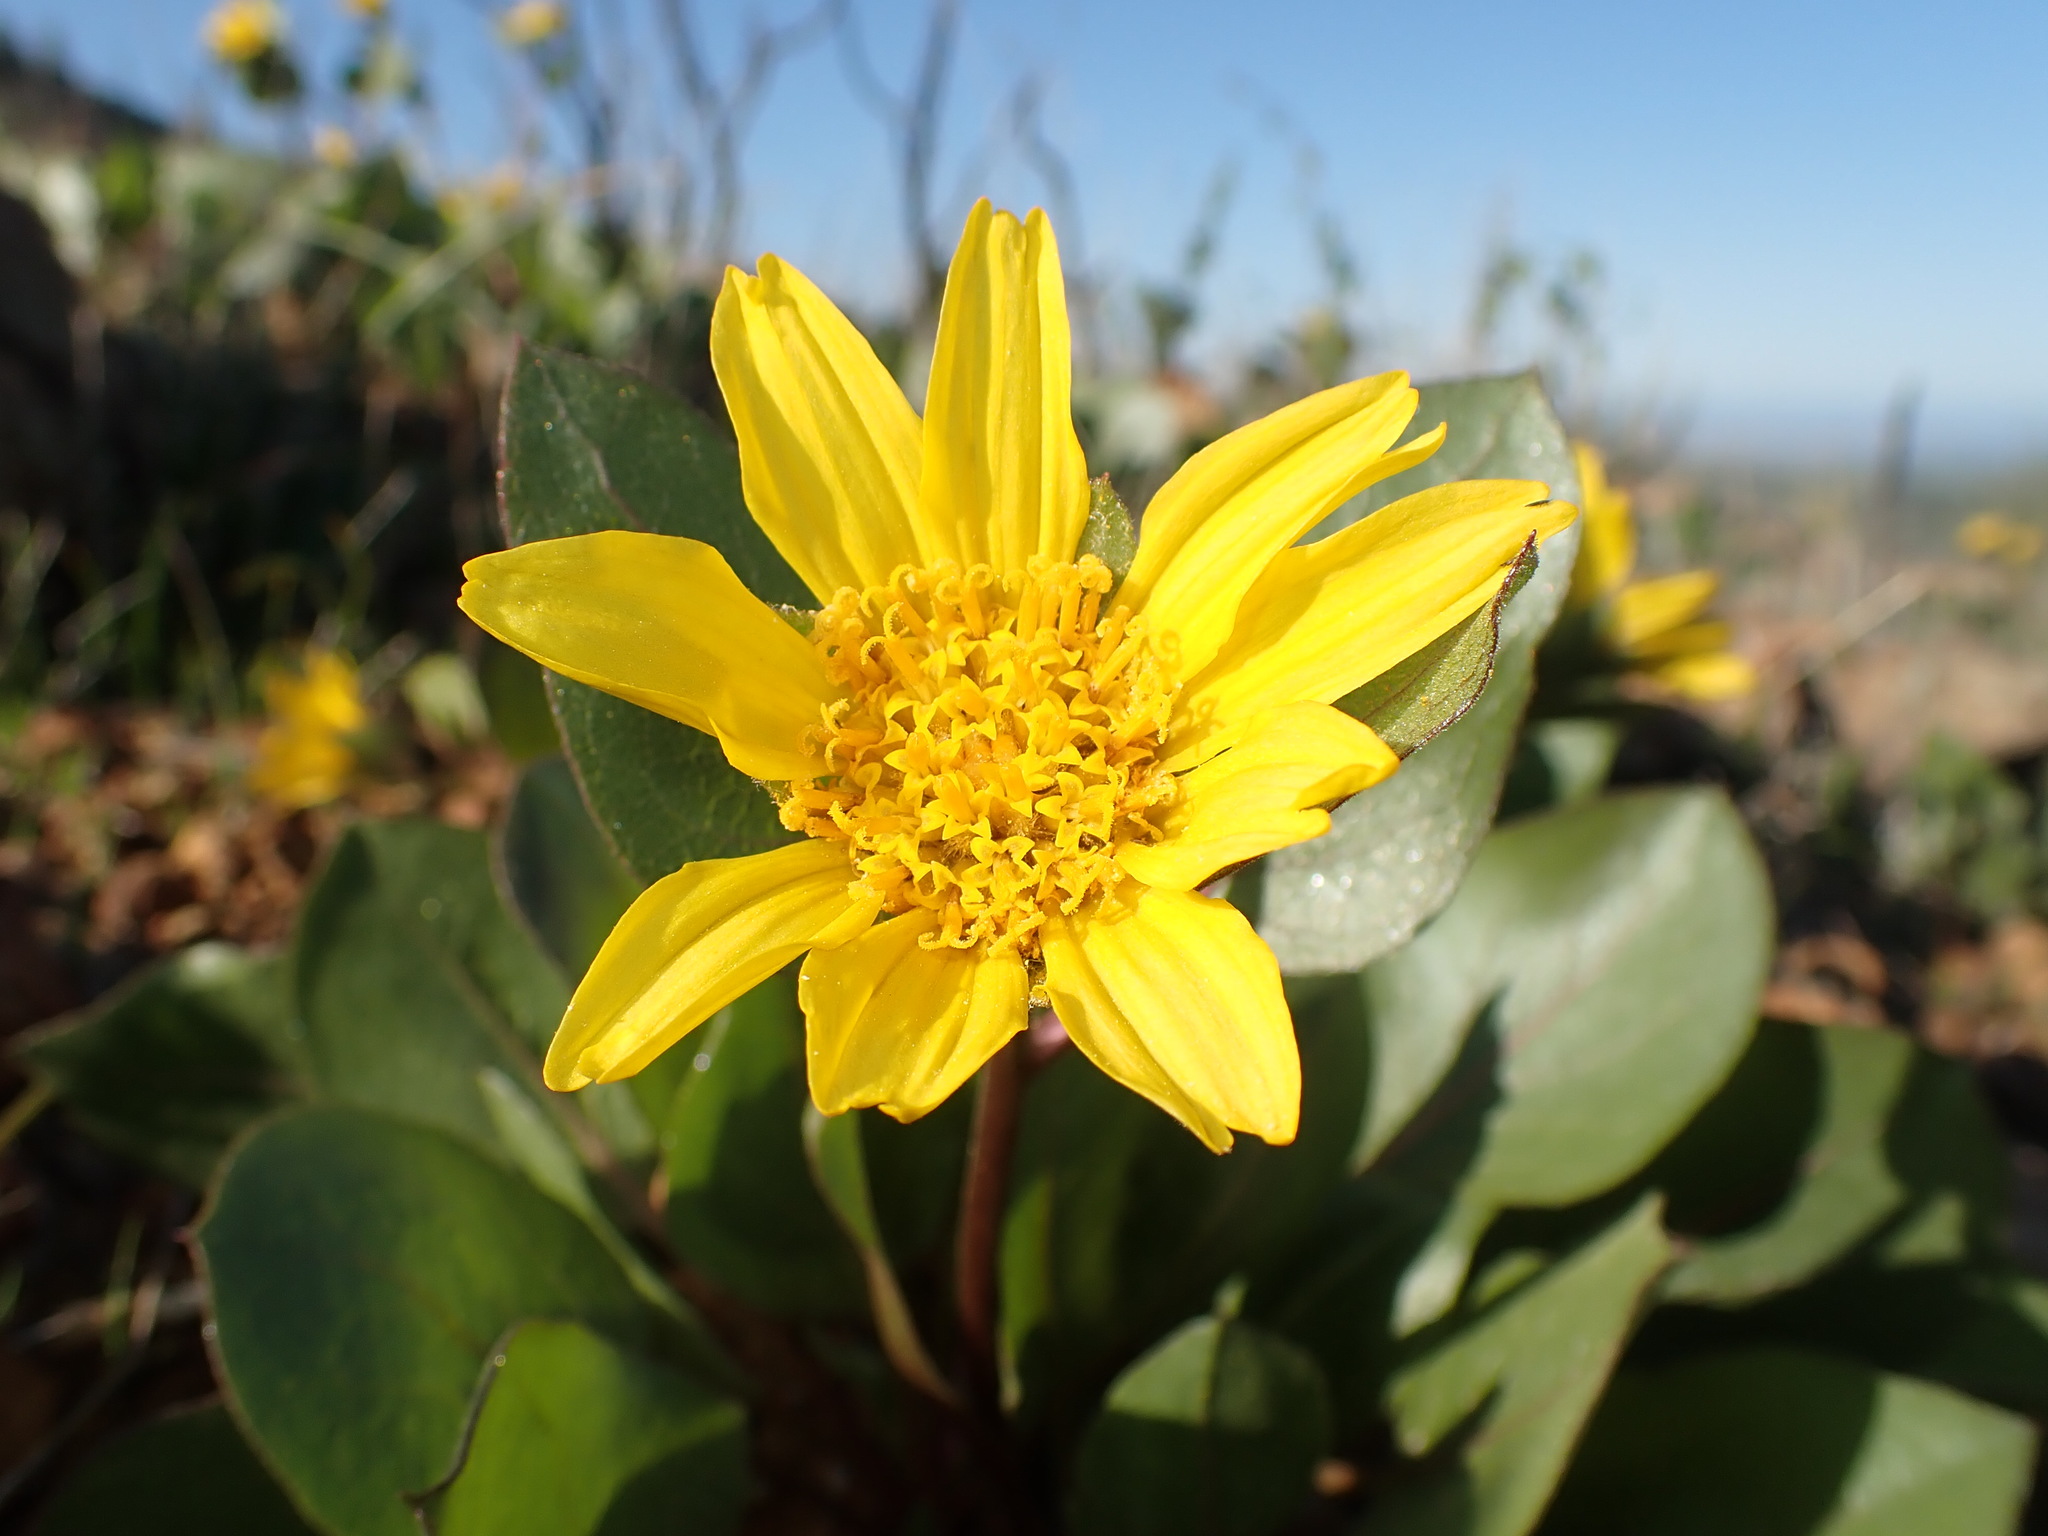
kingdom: Plantae
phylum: Tracheophyta
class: Magnoliopsida
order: Asterales
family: Asteraceae
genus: Agnorhiza
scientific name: Agnorhiza bolanderi
